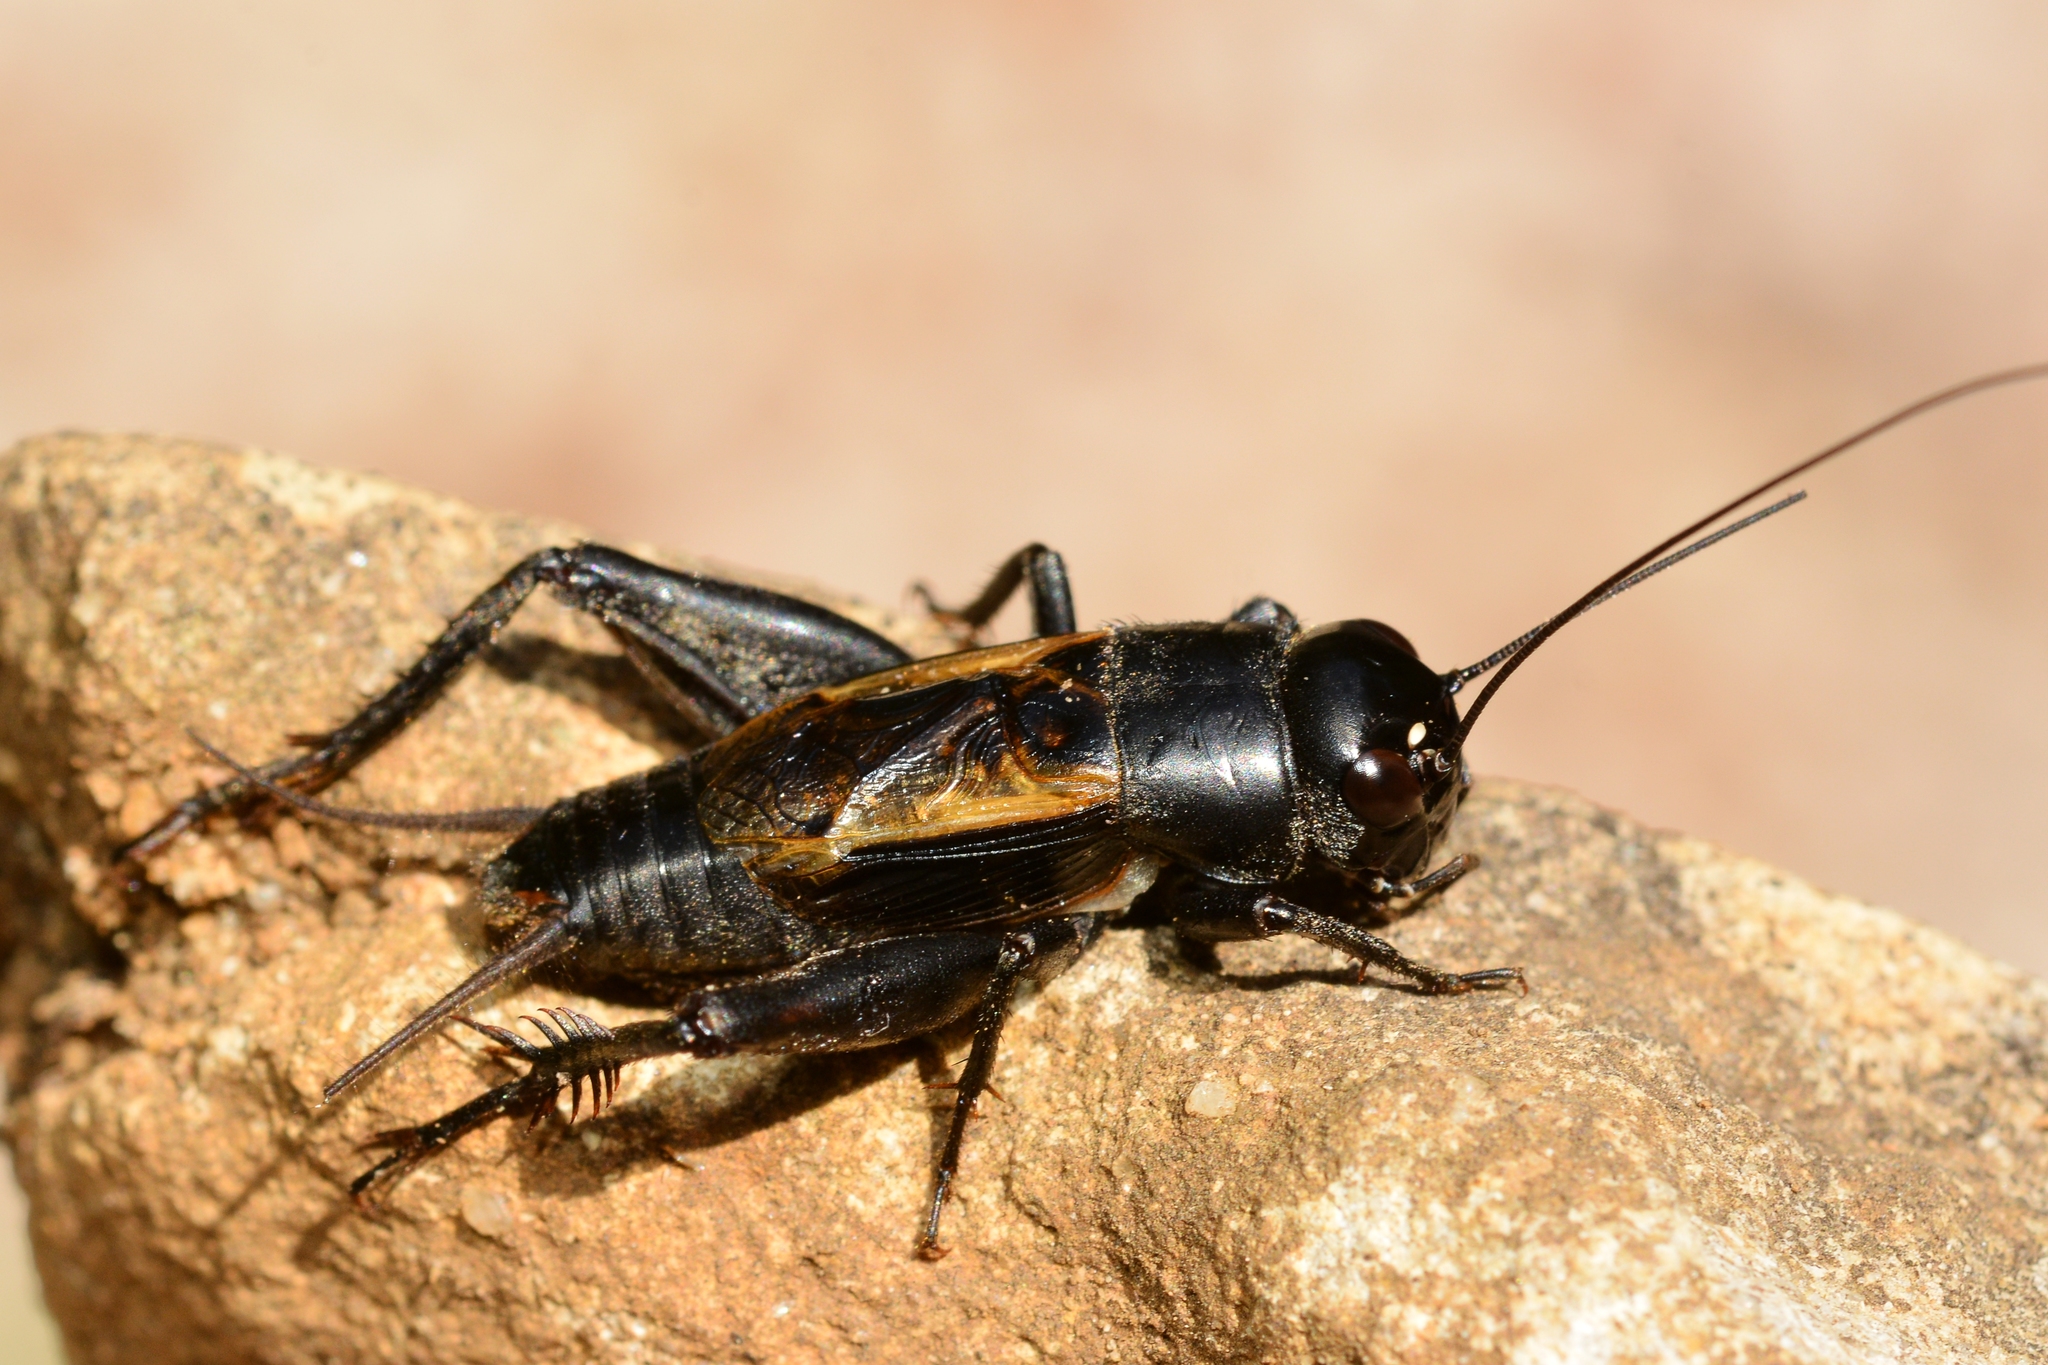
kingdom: Animalia
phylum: Arthropoda
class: Insecta
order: Orthoptera
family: Gryllidae
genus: Melanogryllus
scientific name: Melanogryllus desertus
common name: Desert cricket
